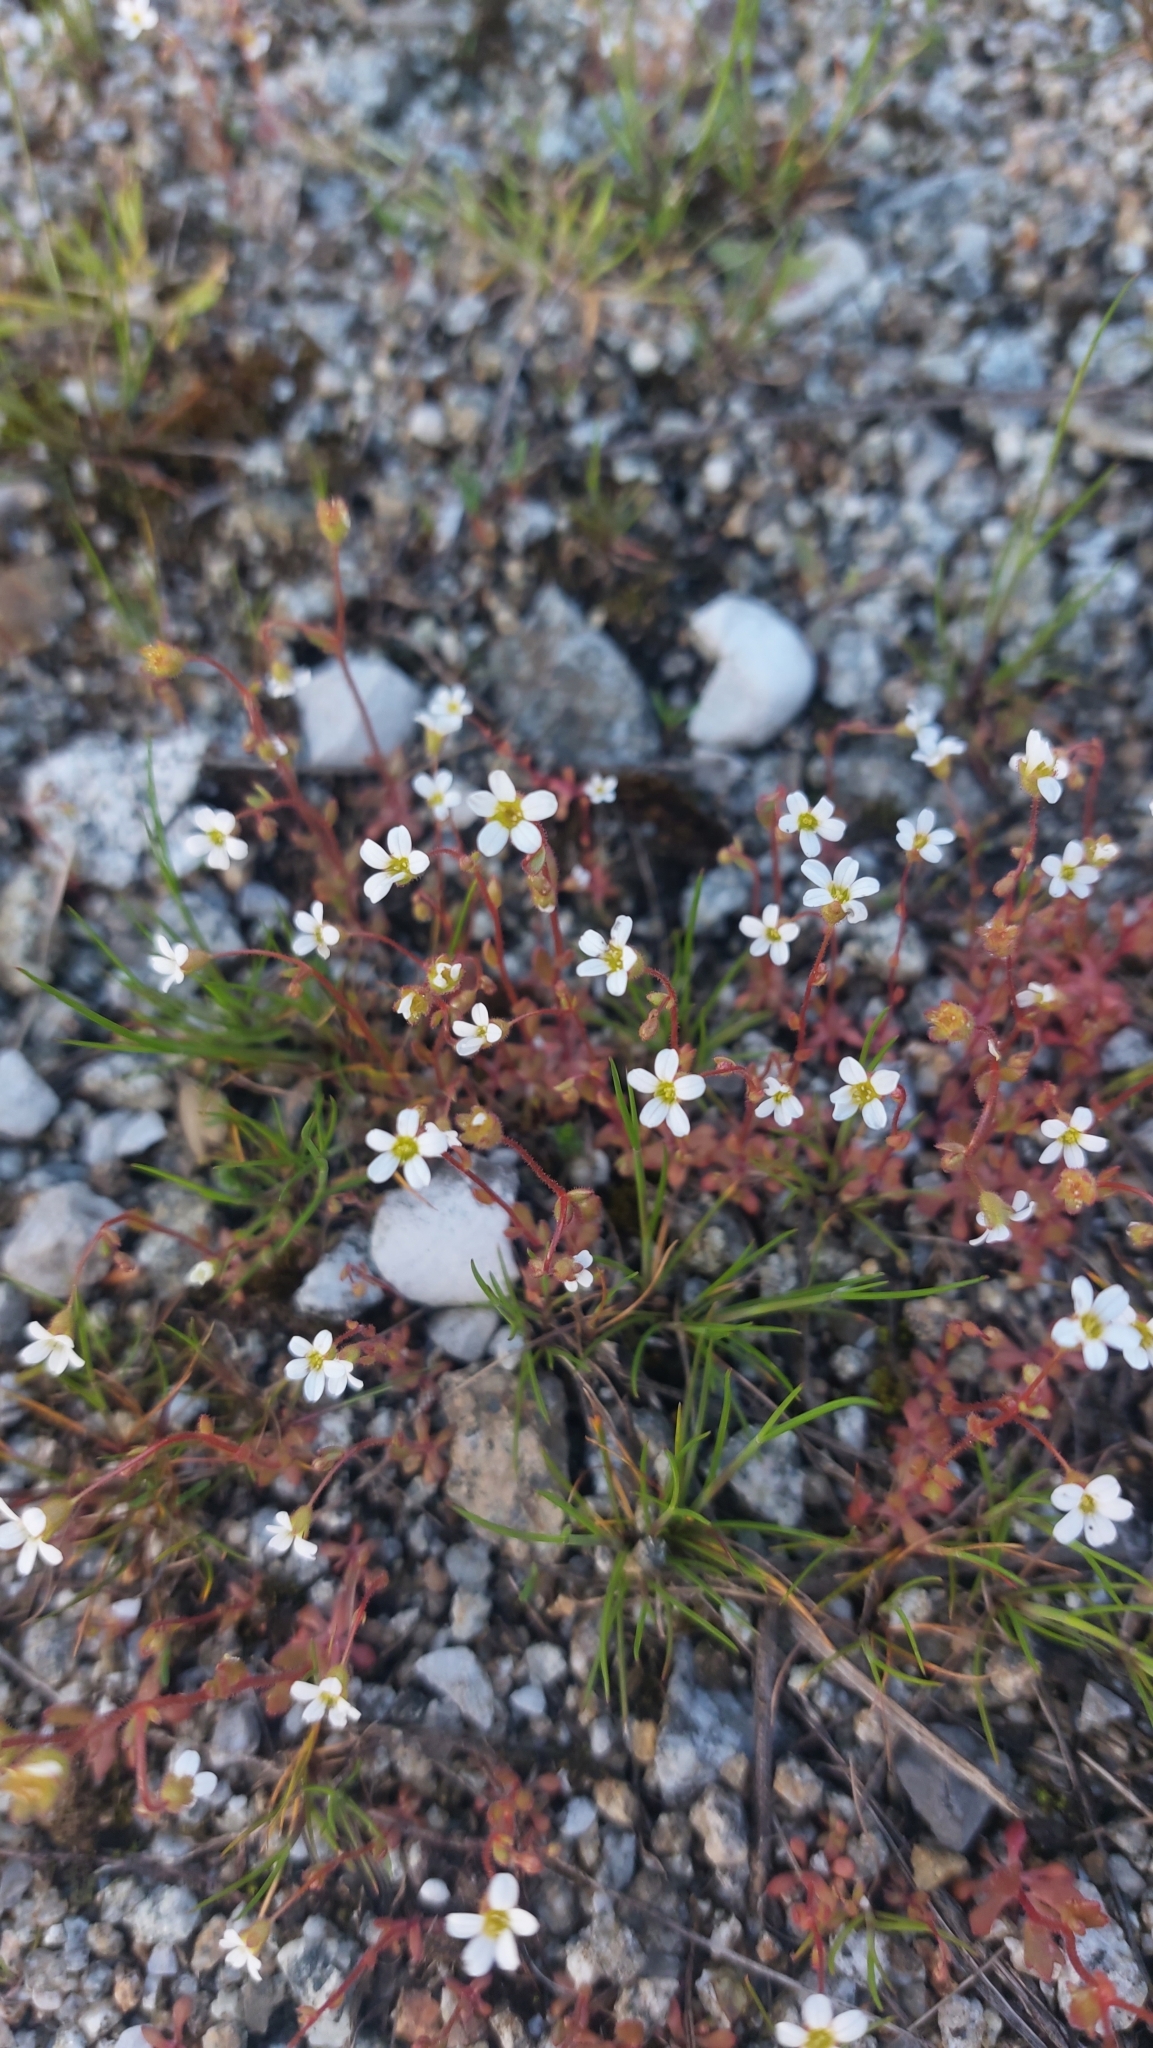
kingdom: Plantae
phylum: Tracheophyta
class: Magnoliopsida
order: Saxifragales
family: Saxifragaceae
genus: Saxifraga
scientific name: Saxifraga tridactylites
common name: Rue-leaved saxifrage
